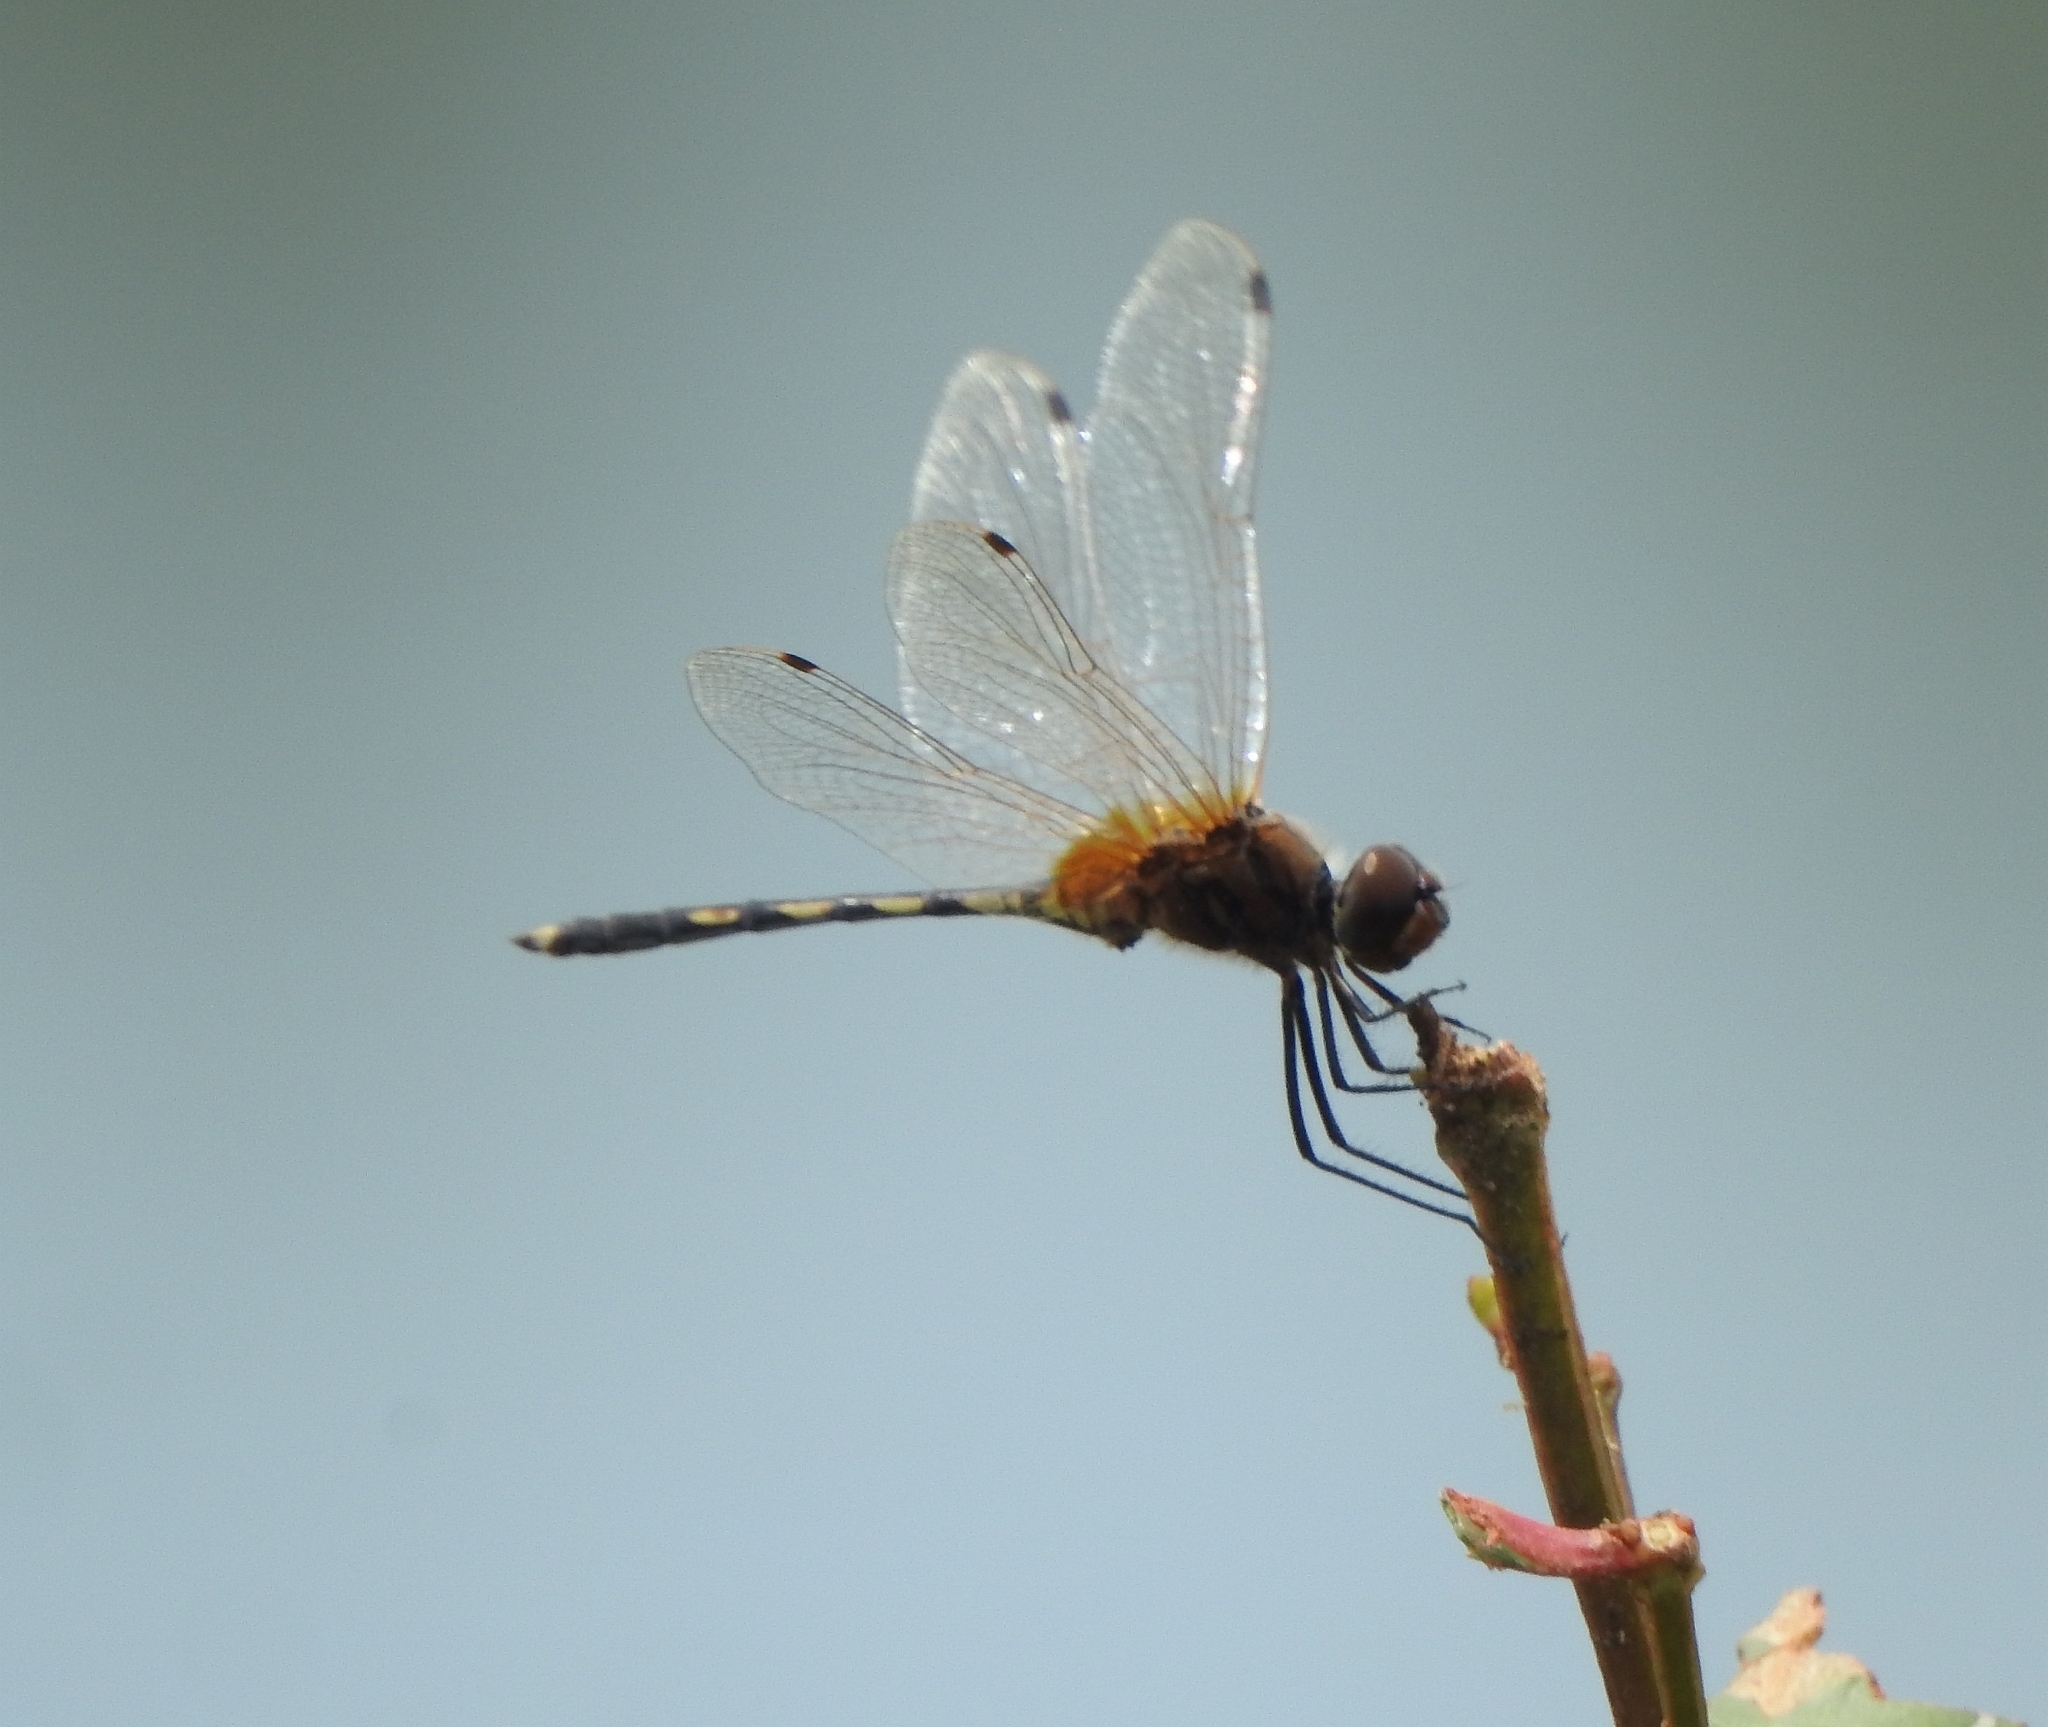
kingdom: Animalia
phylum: Arthropoda
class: Insecta
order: Odonata
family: Libellulidae
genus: Trithemis
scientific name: Trithemis pallidinervis
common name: Dancing dropwing
